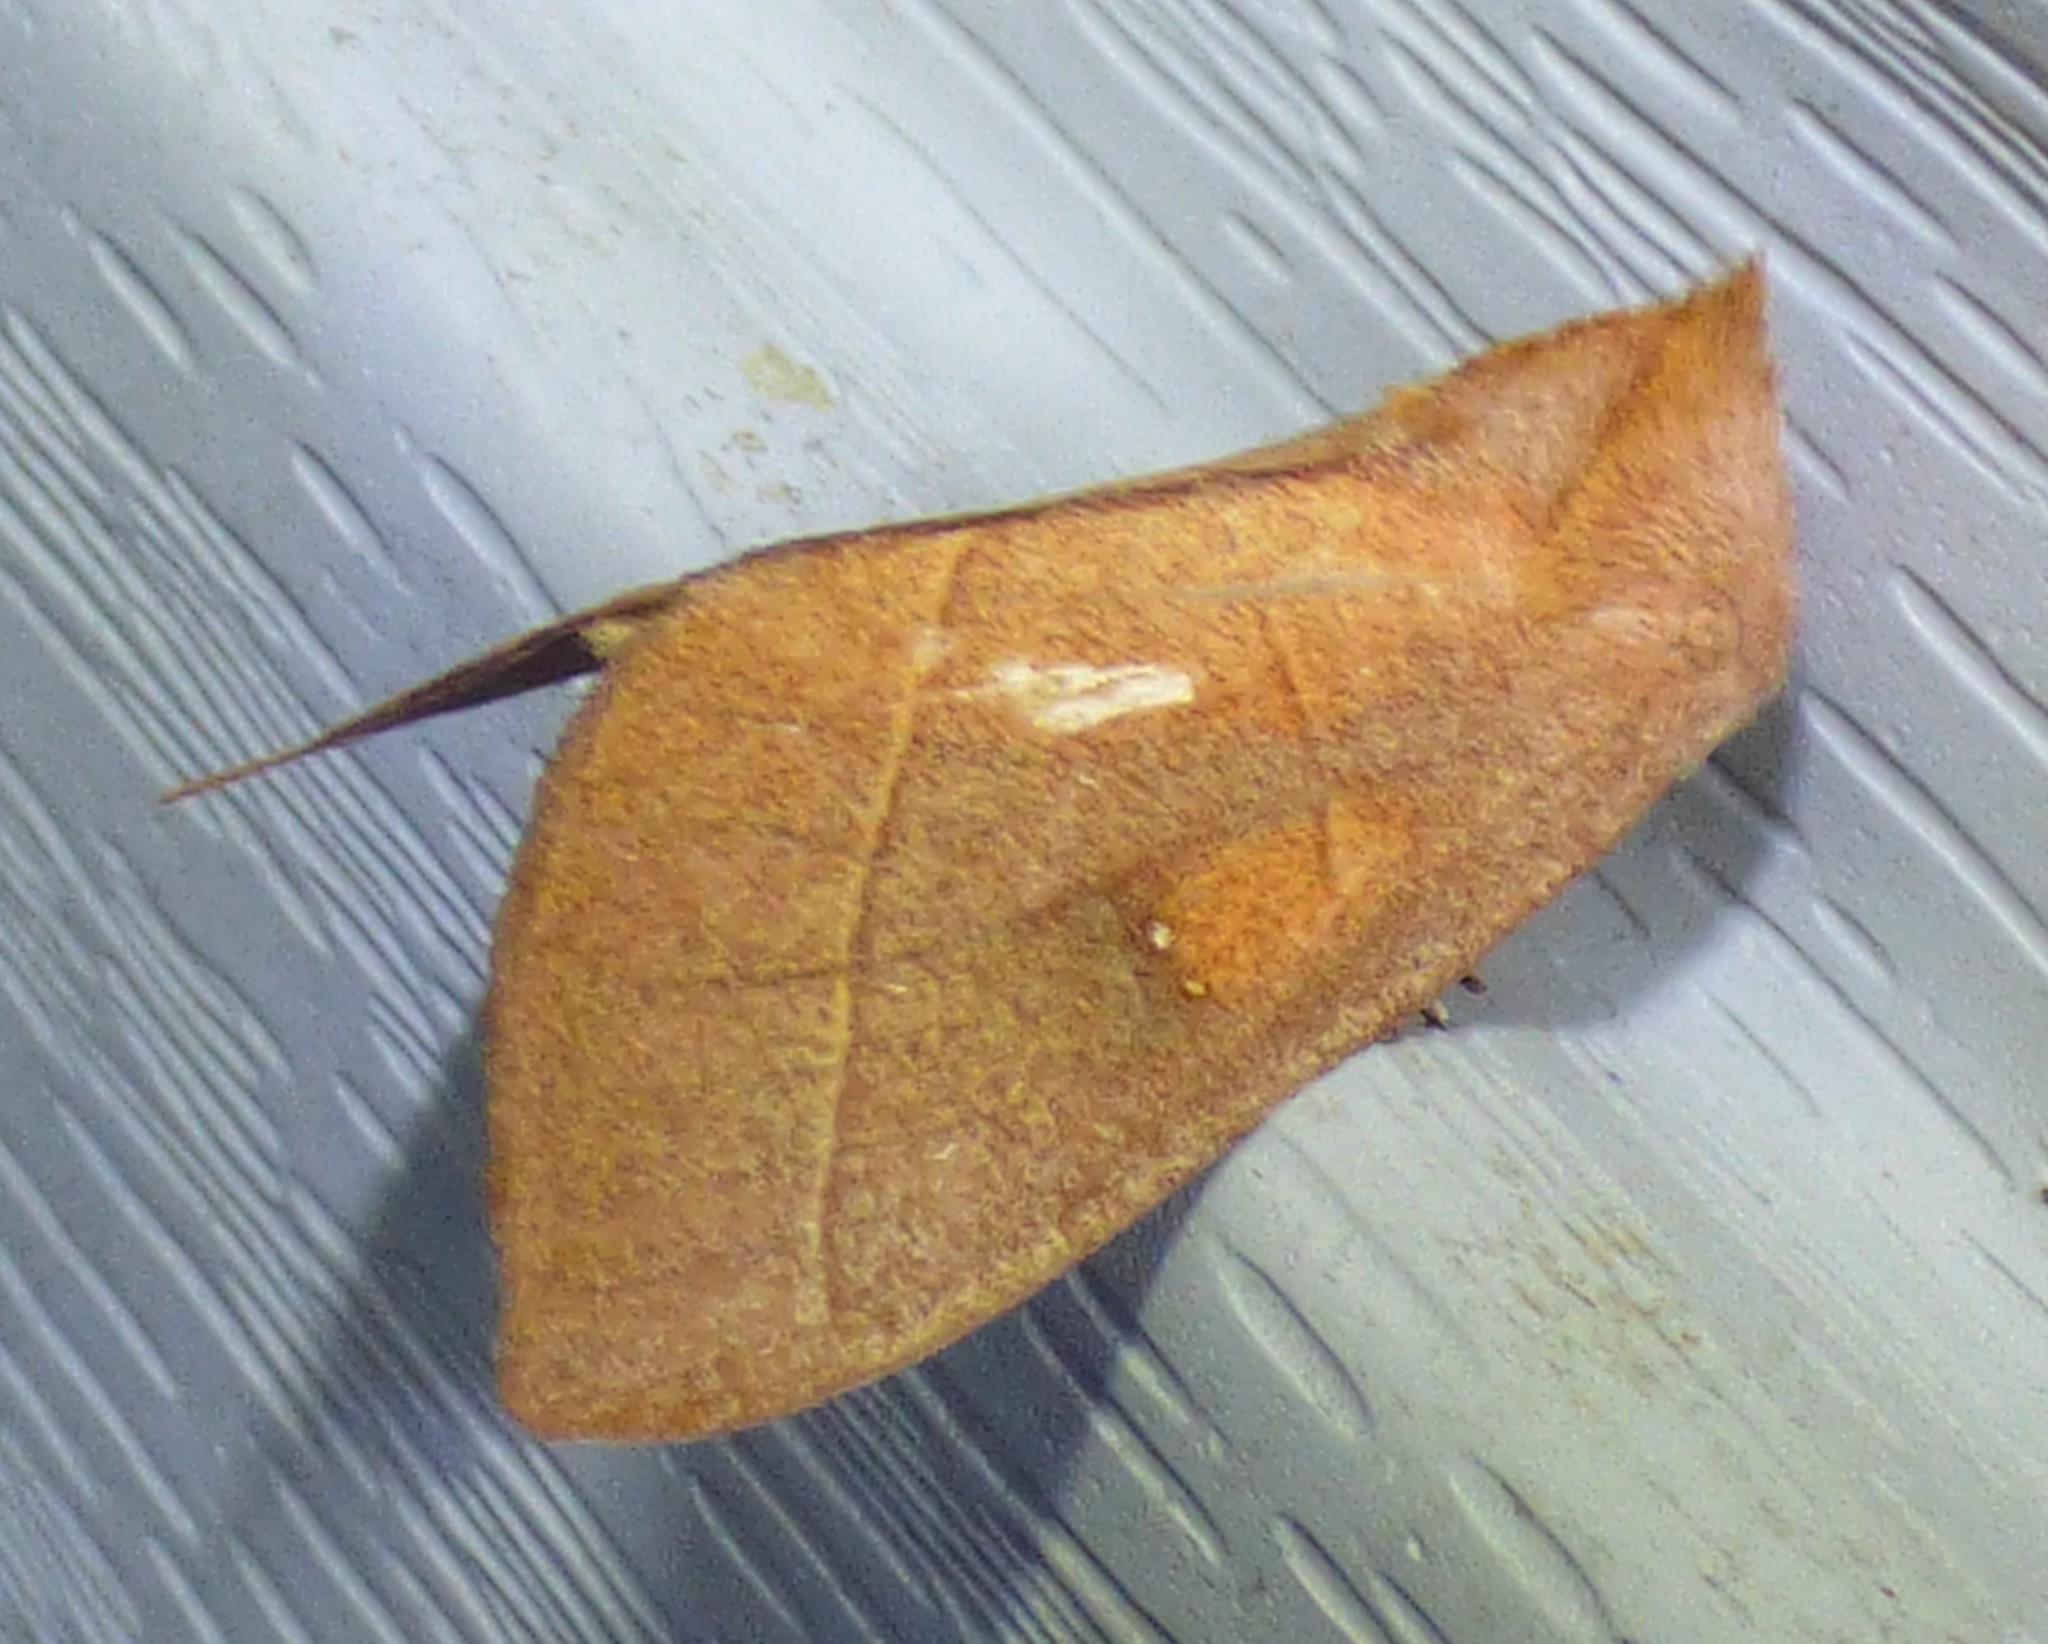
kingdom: Animalia
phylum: Arthropoda
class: Insecta
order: Lepidoptera
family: Notodontidae
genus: Nadata
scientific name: Nadata gibbosa
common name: White-dotted prominent
